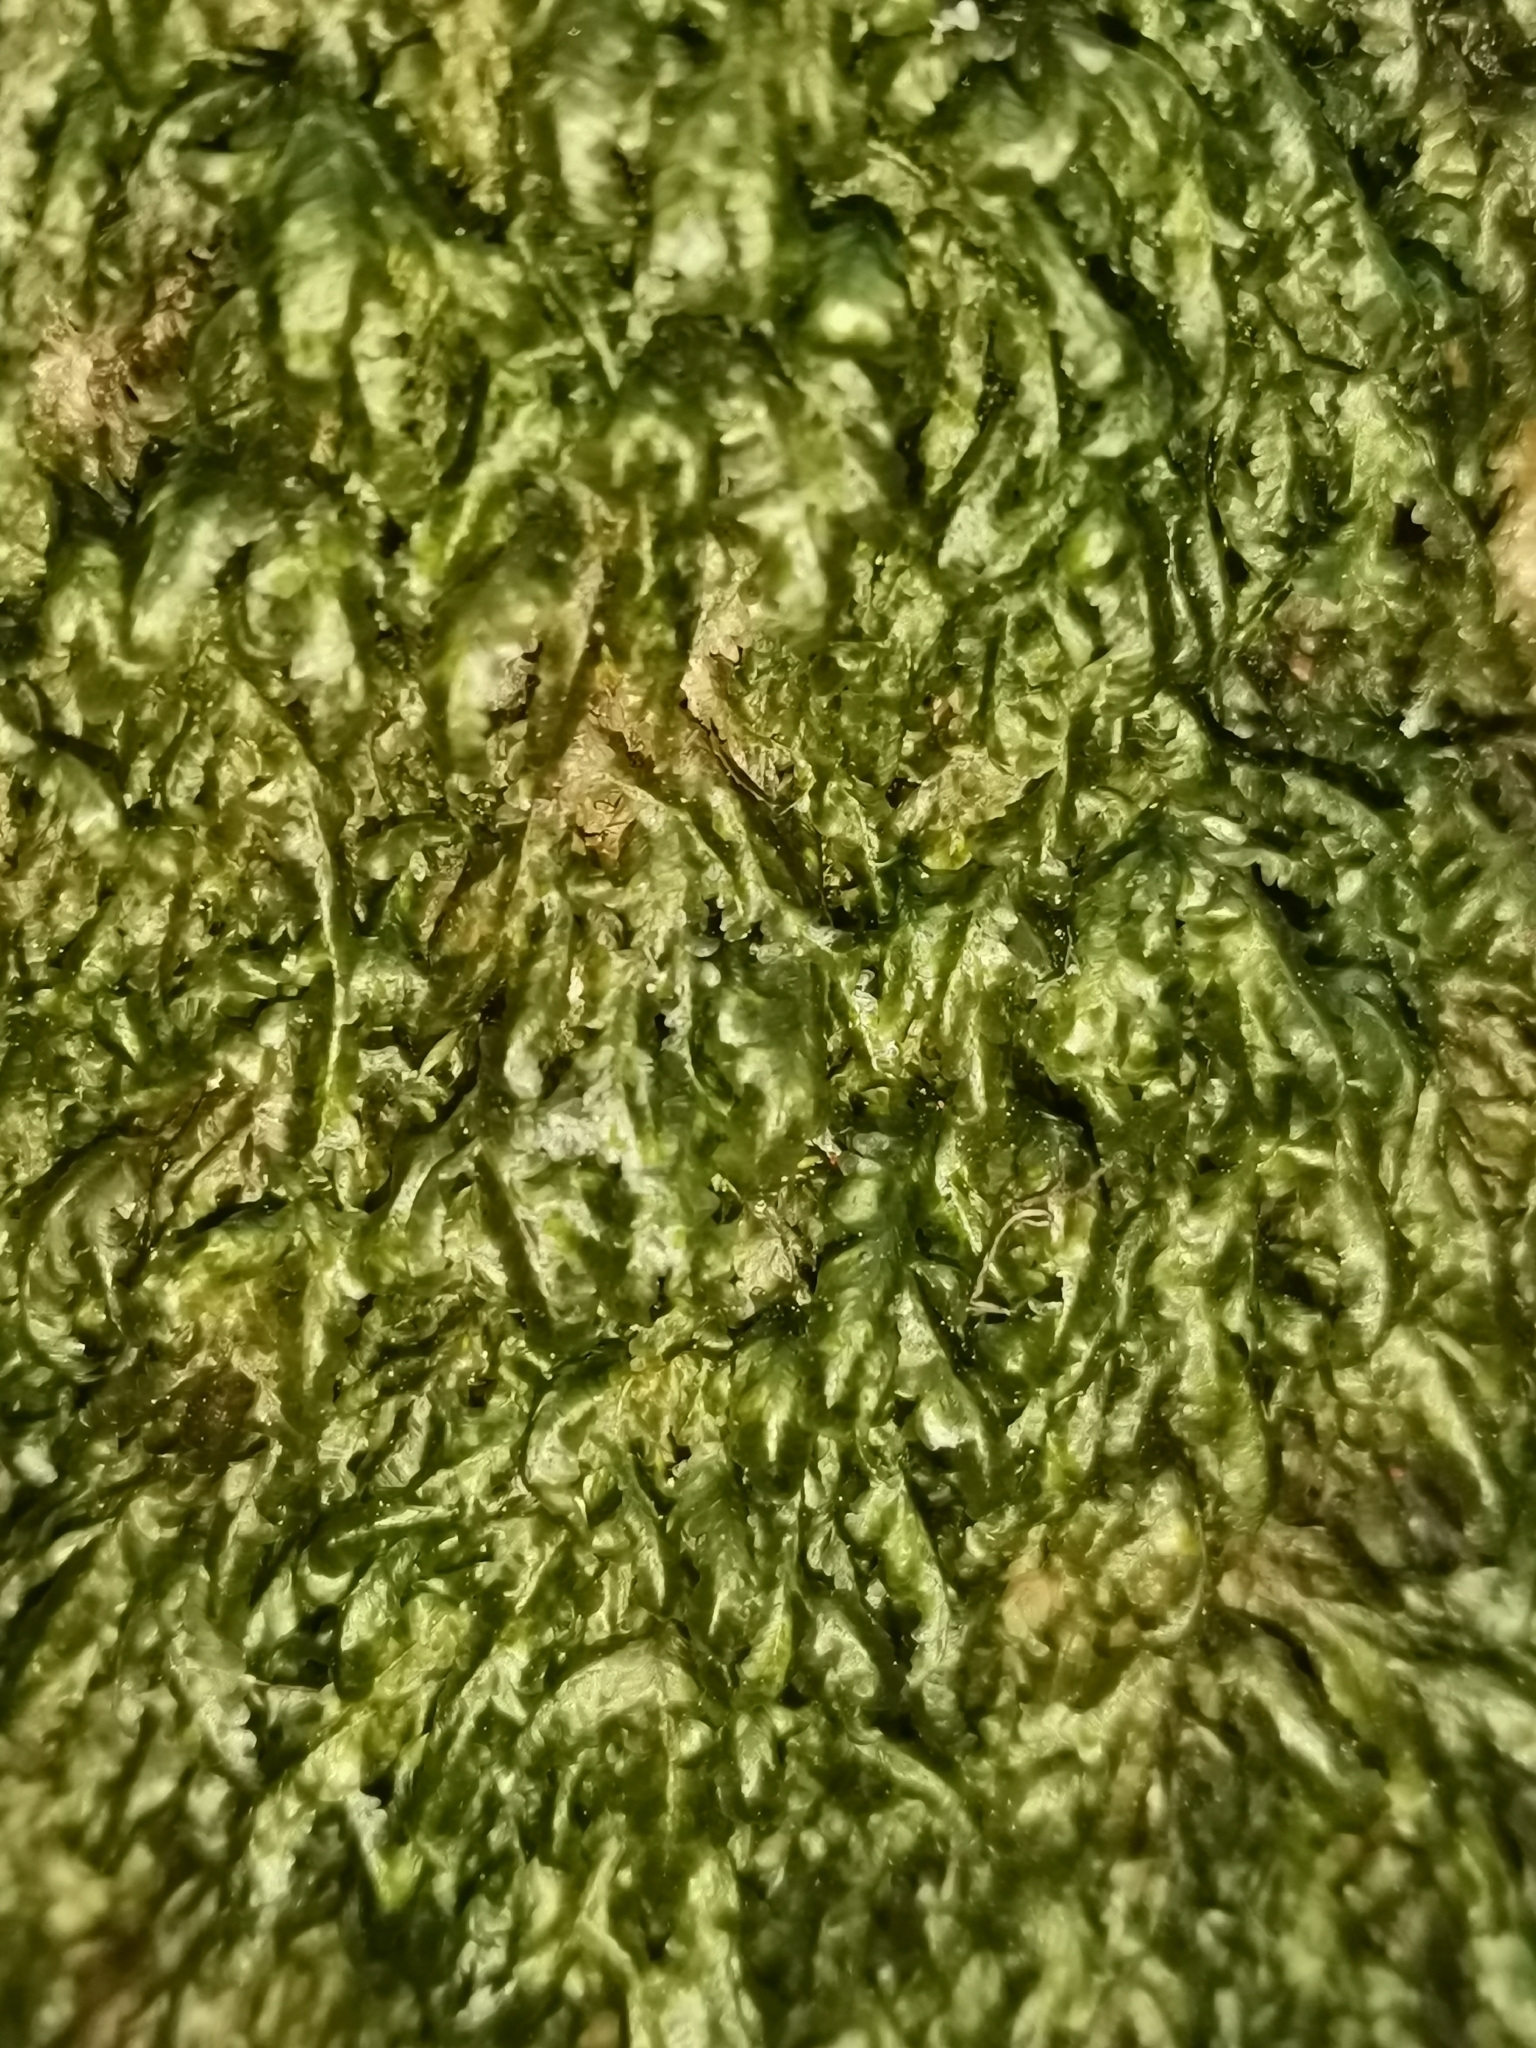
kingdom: Plantae
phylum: Bryophyta
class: Bryopsida
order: Hypnales
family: Neckeraceae
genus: Homalia
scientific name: Homalia trichomanoides
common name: Lime homalia moss
